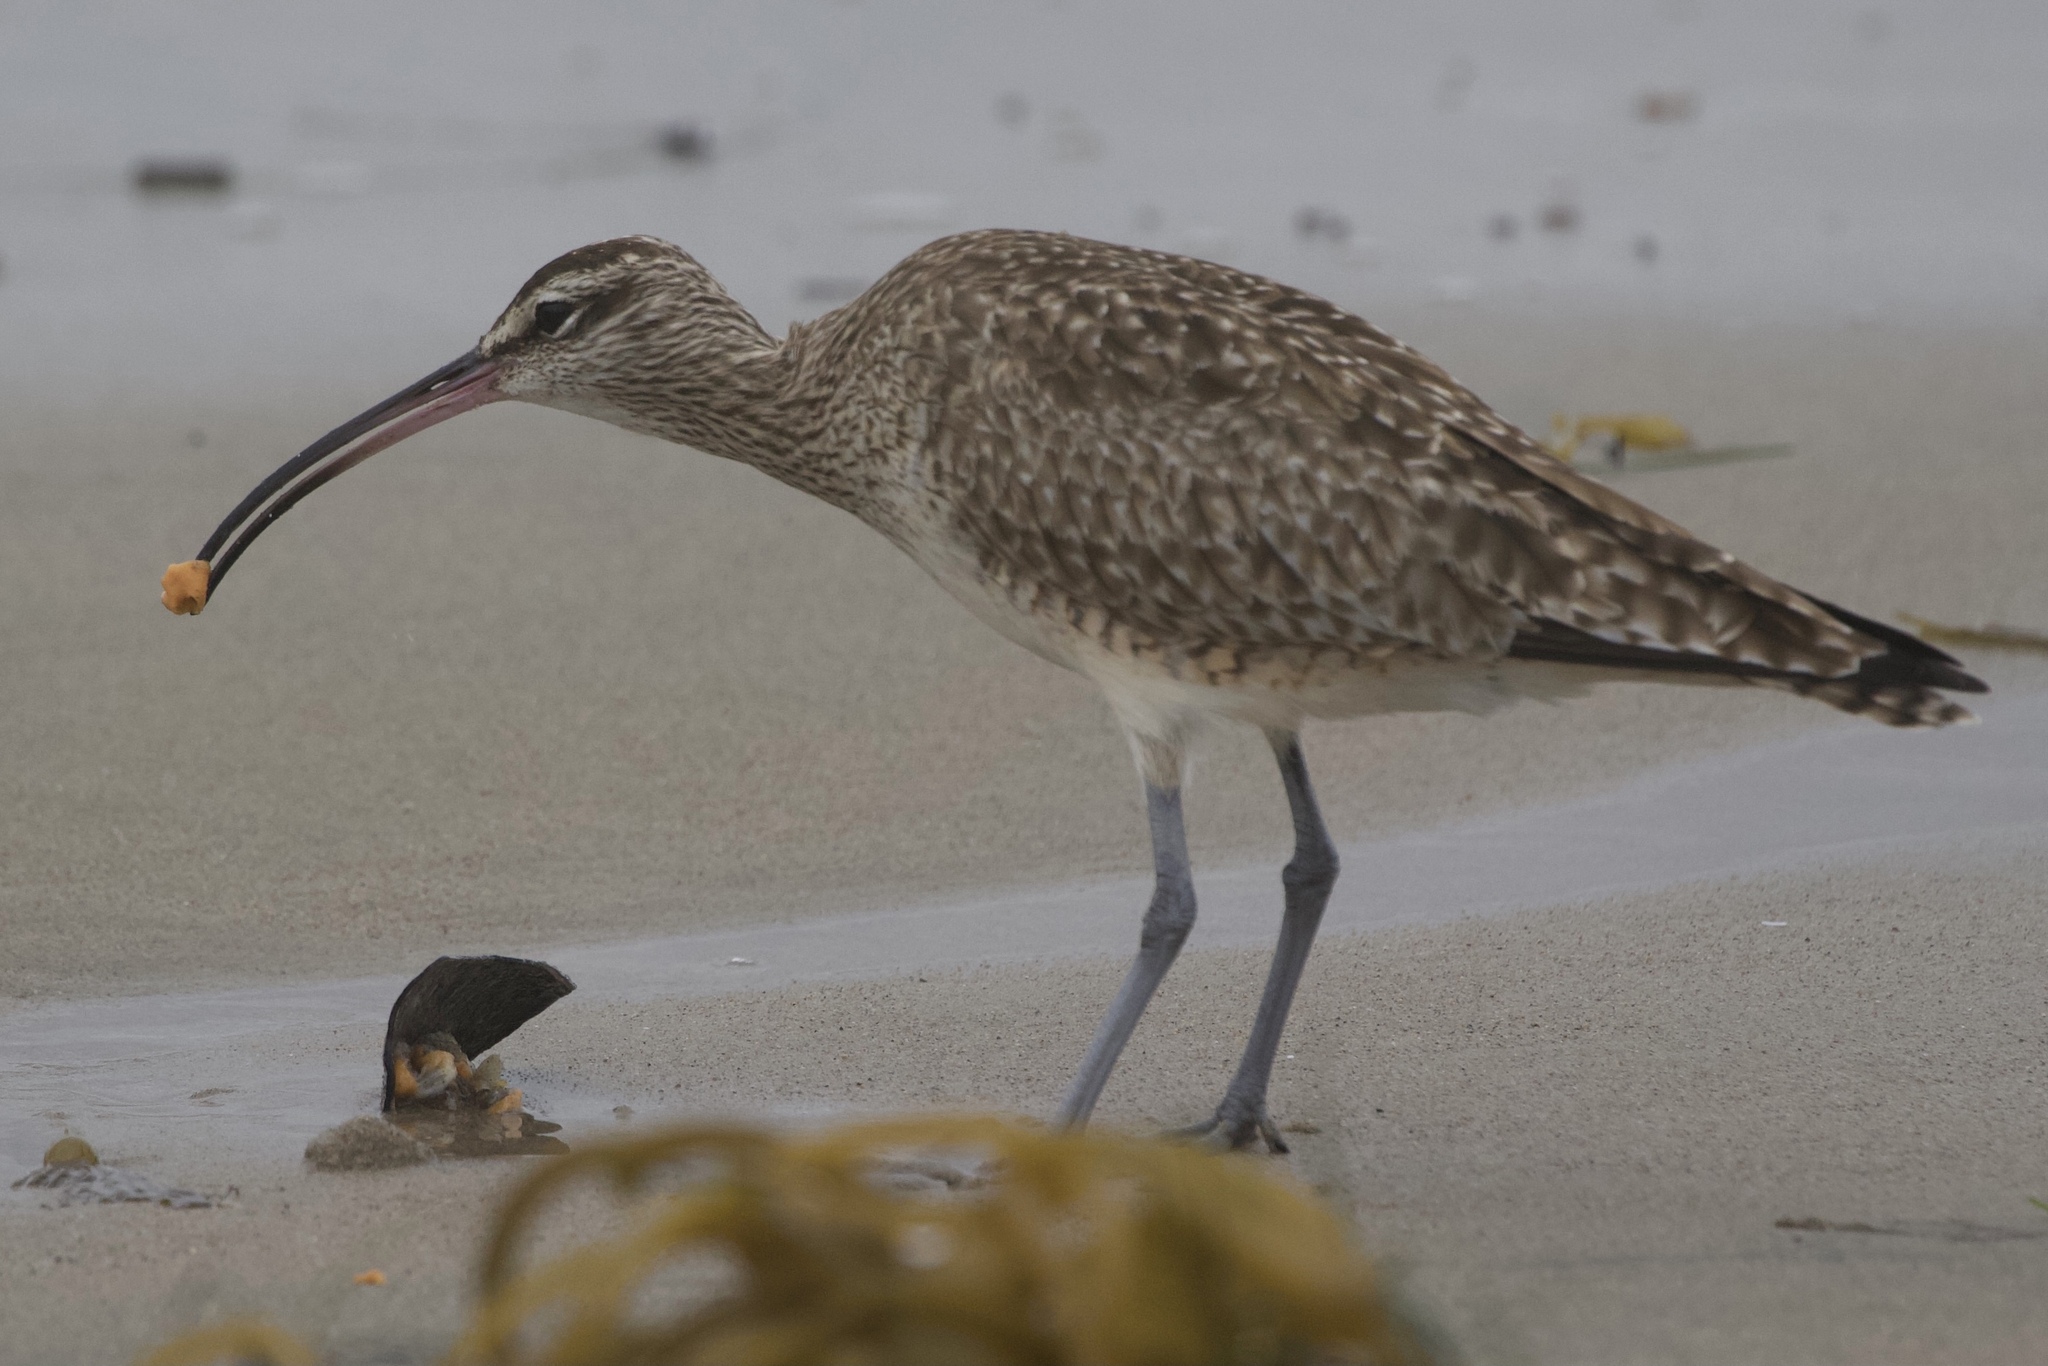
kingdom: Animalia
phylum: Chordata
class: Aves
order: Charadriiformes
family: Scolopacidae
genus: Numenius
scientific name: Numenius phaeopus
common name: Whimbrel
